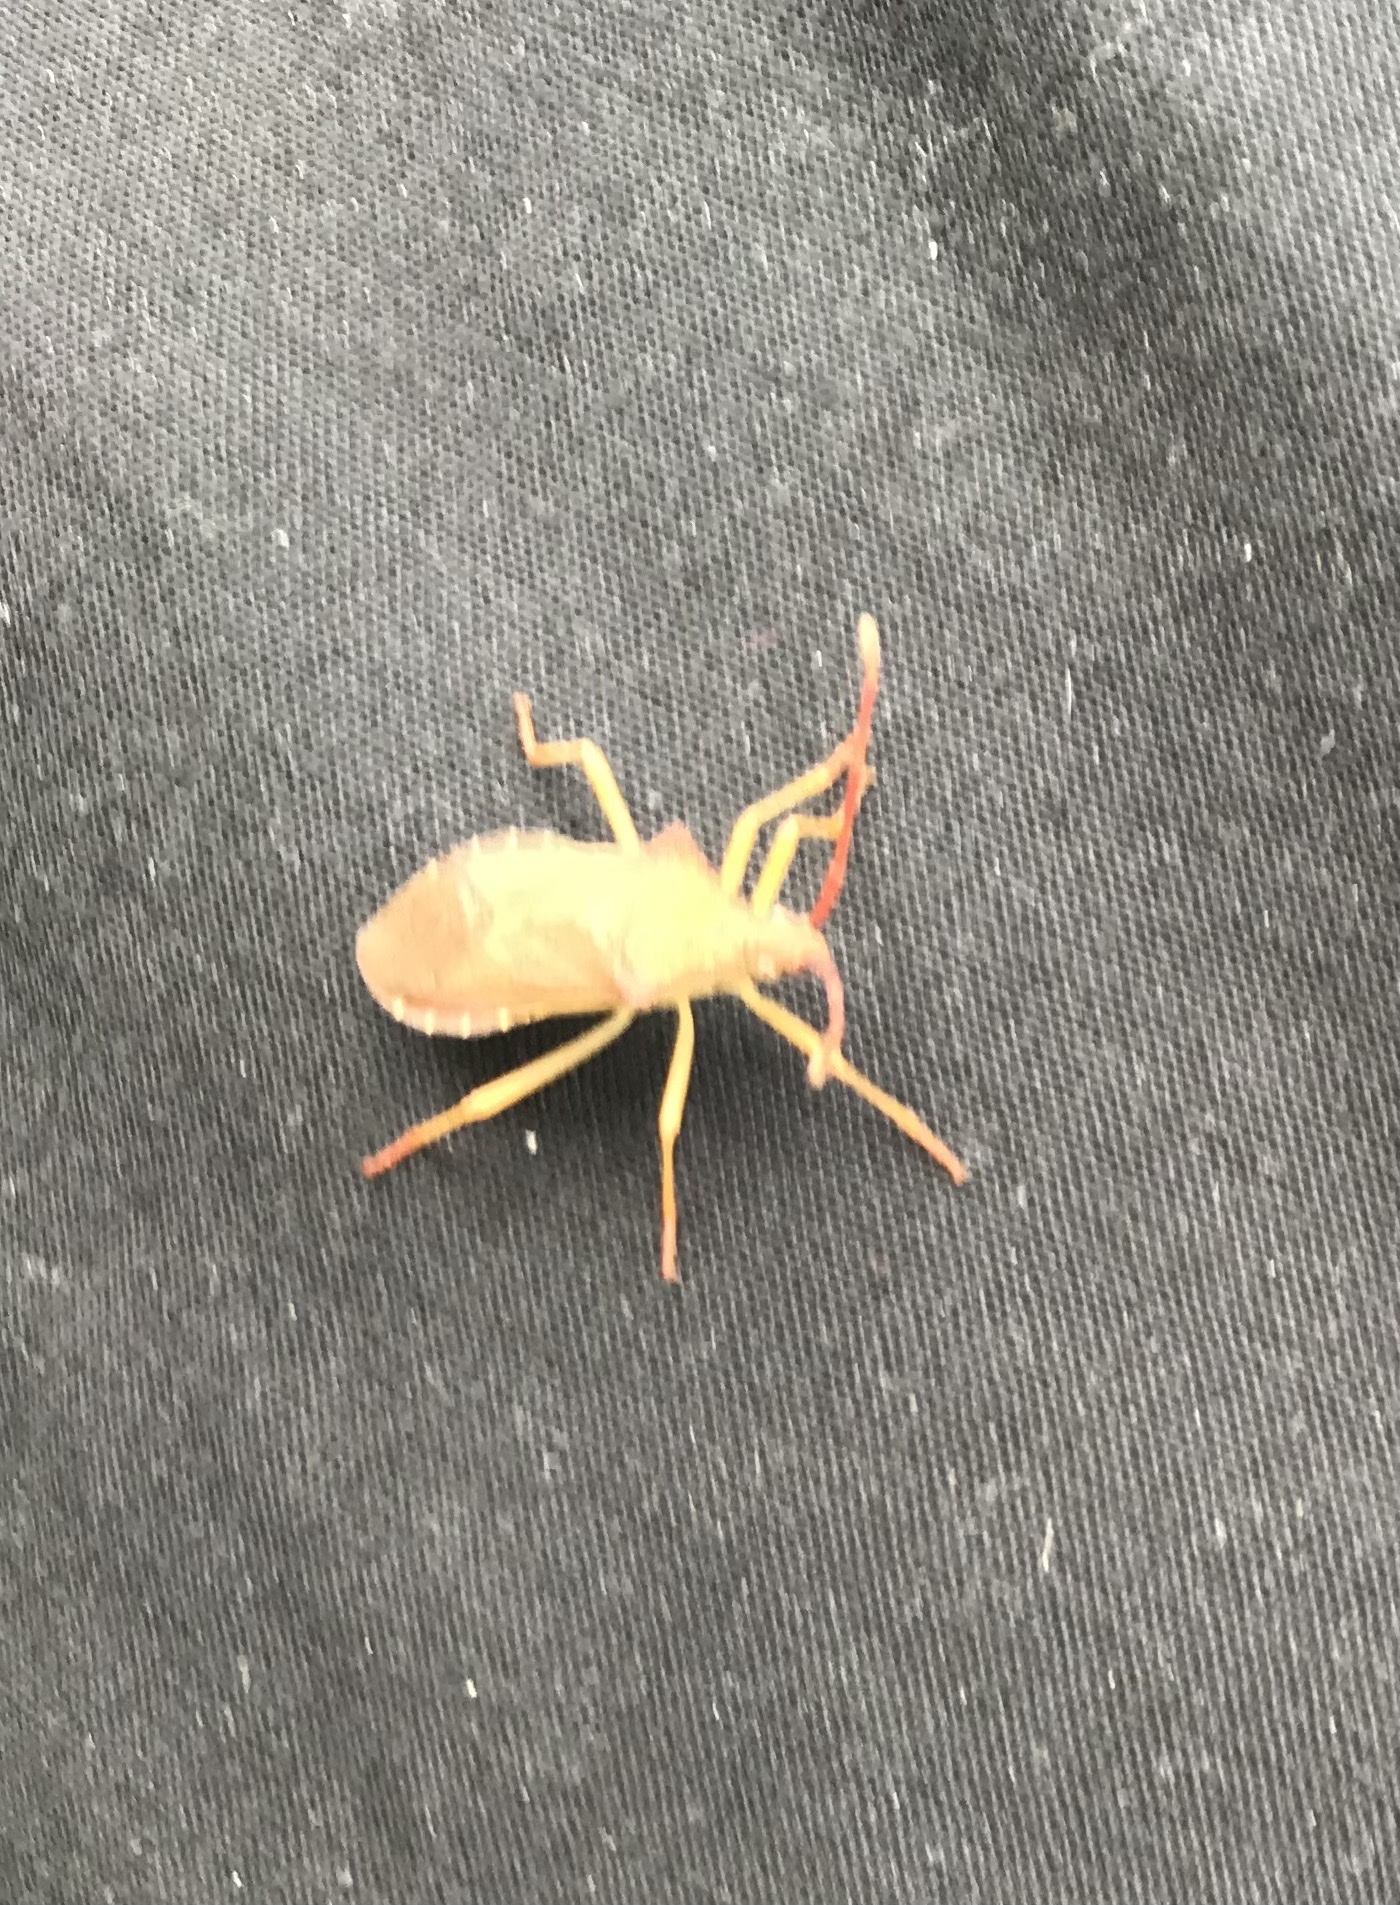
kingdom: Animalia
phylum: Arthropoda
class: Insecta
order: Hemiptera
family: Coreidae
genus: Gonocerus
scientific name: Gonocerus acuteangulatus
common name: Box bug
